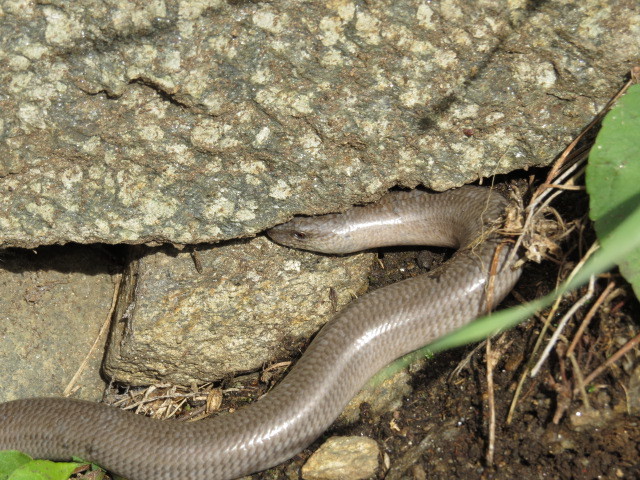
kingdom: Animalia
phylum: Chordata
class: Squamata
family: Anguidae
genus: Anguis
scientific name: Anguis veronensis
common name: Italian slow worm
